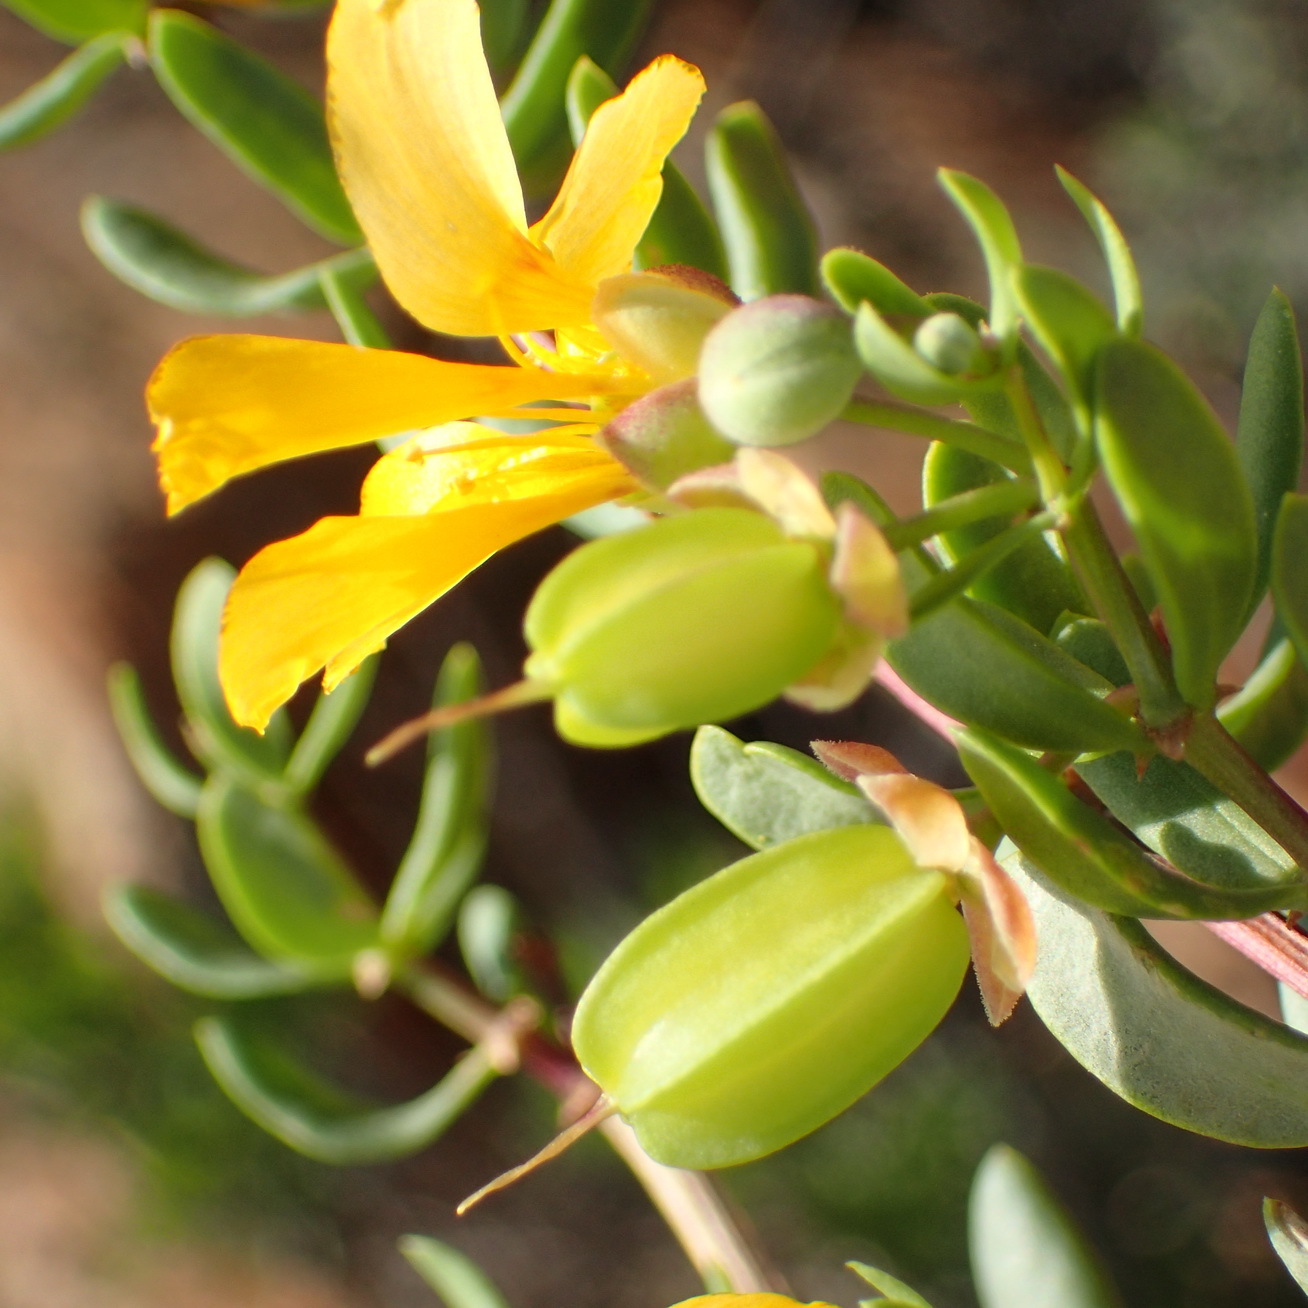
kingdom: Plantae
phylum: Tracheophyta
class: Magnoliopsida
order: Zygophyllales
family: Zygophyllaceae
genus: Roepera
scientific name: Roepera foetida
